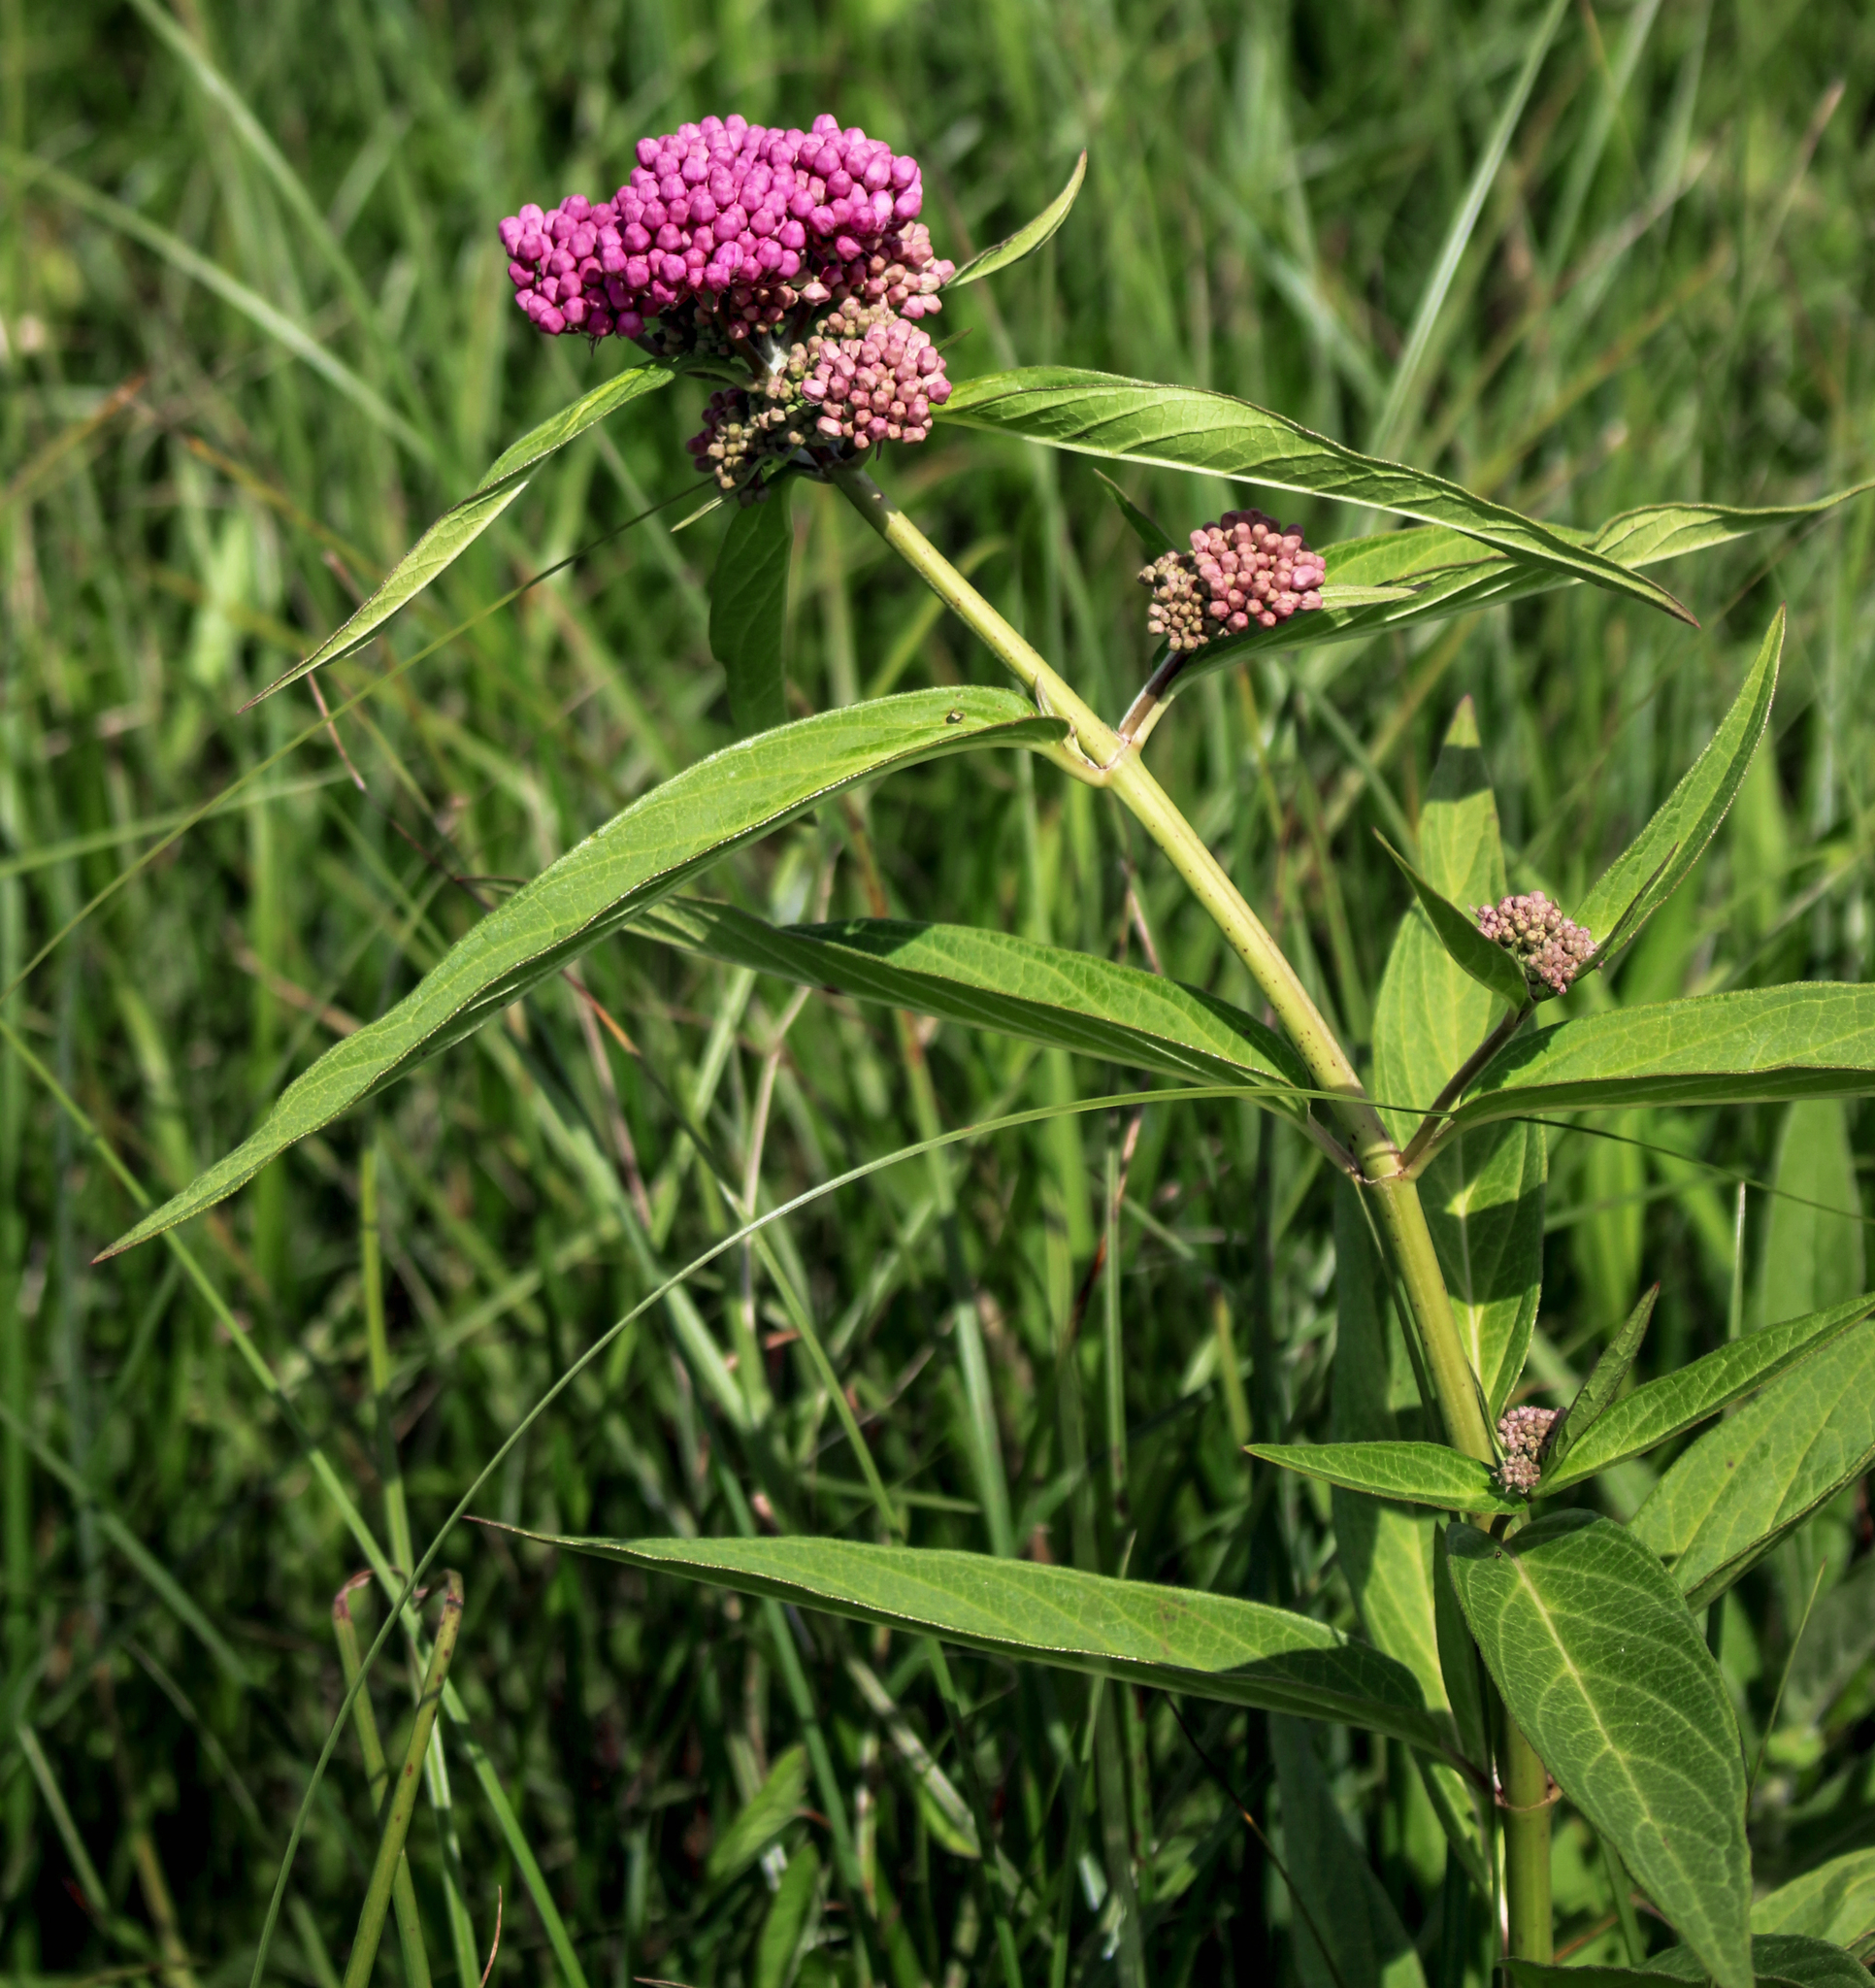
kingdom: Plantae
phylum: Tracheophyta
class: Magnoliopsida
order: Gentianales
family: Apocynaceae
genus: Asclepias
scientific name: Asclepias incarnata
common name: Swamp milkweed
